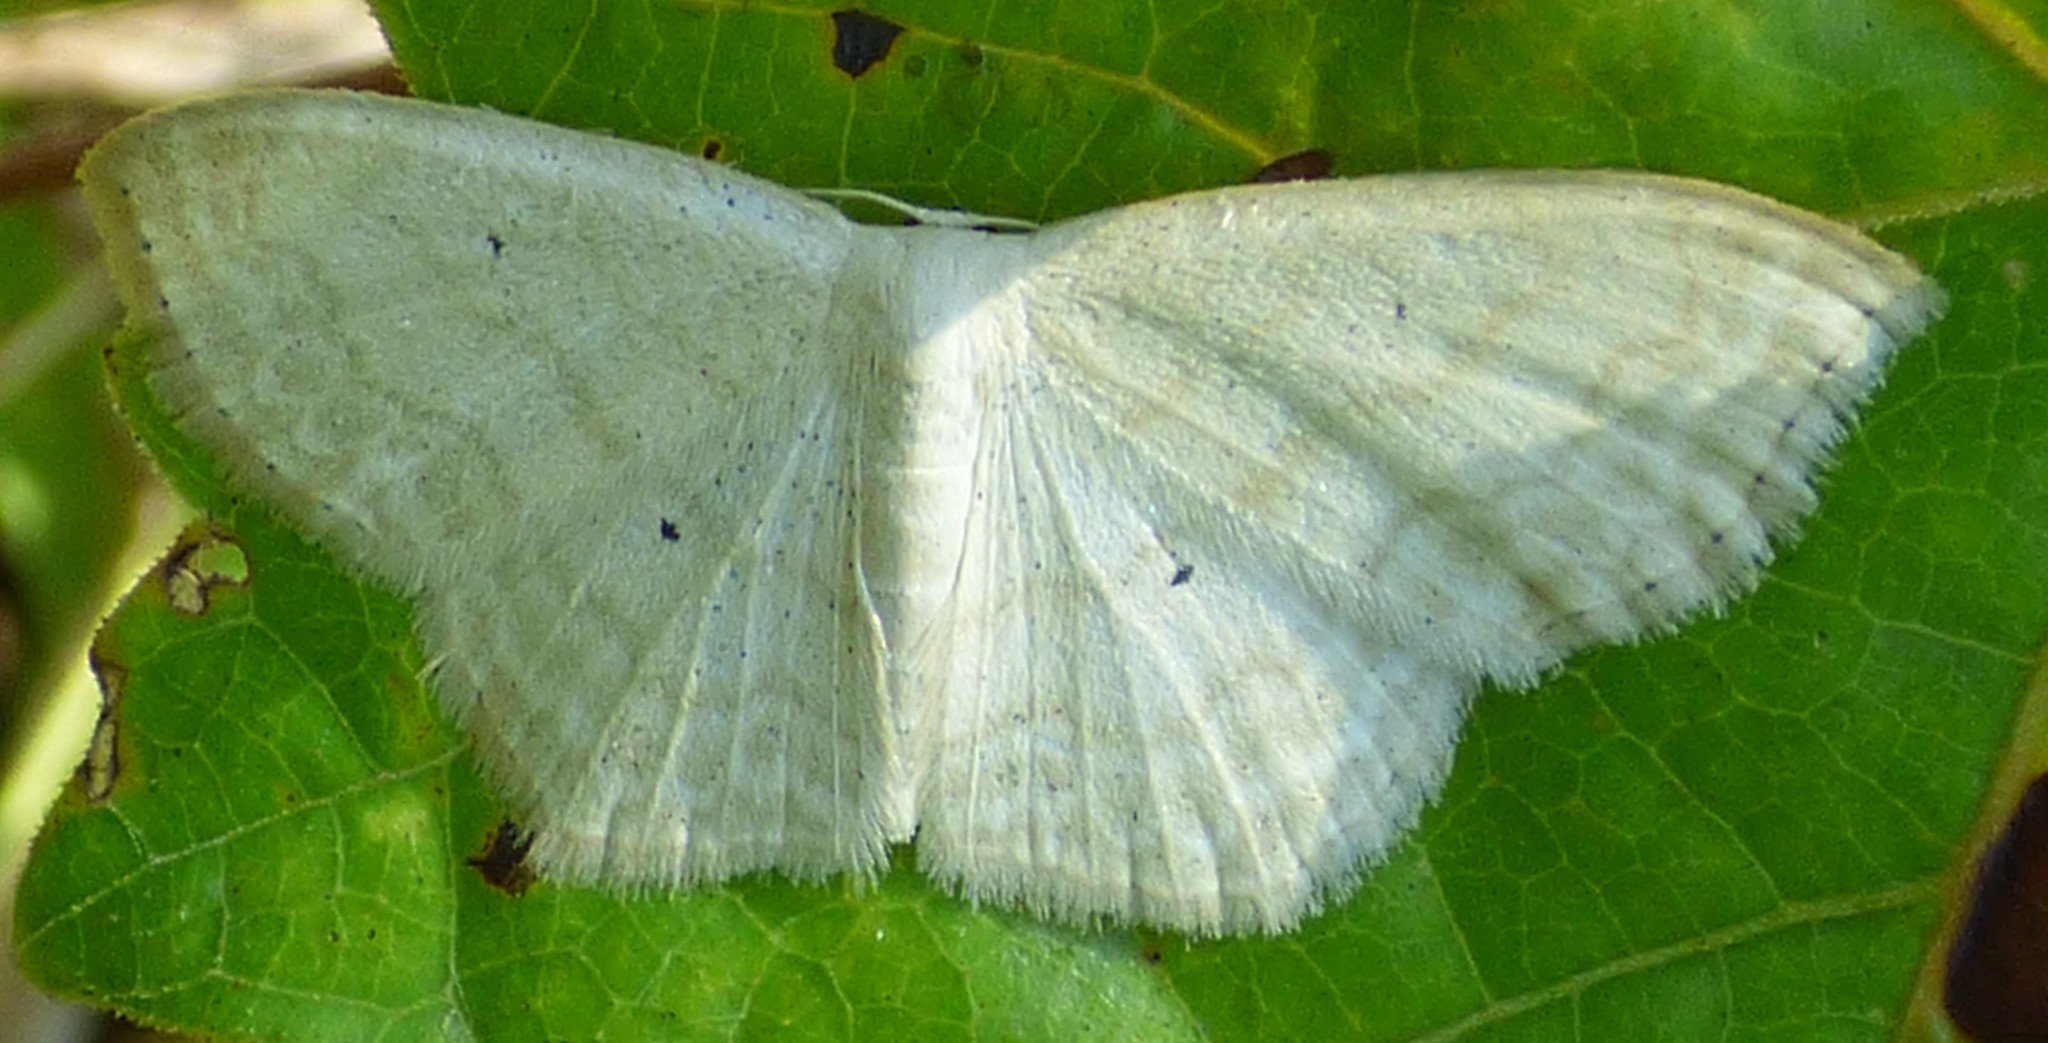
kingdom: Animalia
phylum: Arthropoda
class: Insecta
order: Lepidoptera
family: Geometridae
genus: Scopula
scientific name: Scopula limboundata
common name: Large lace border
